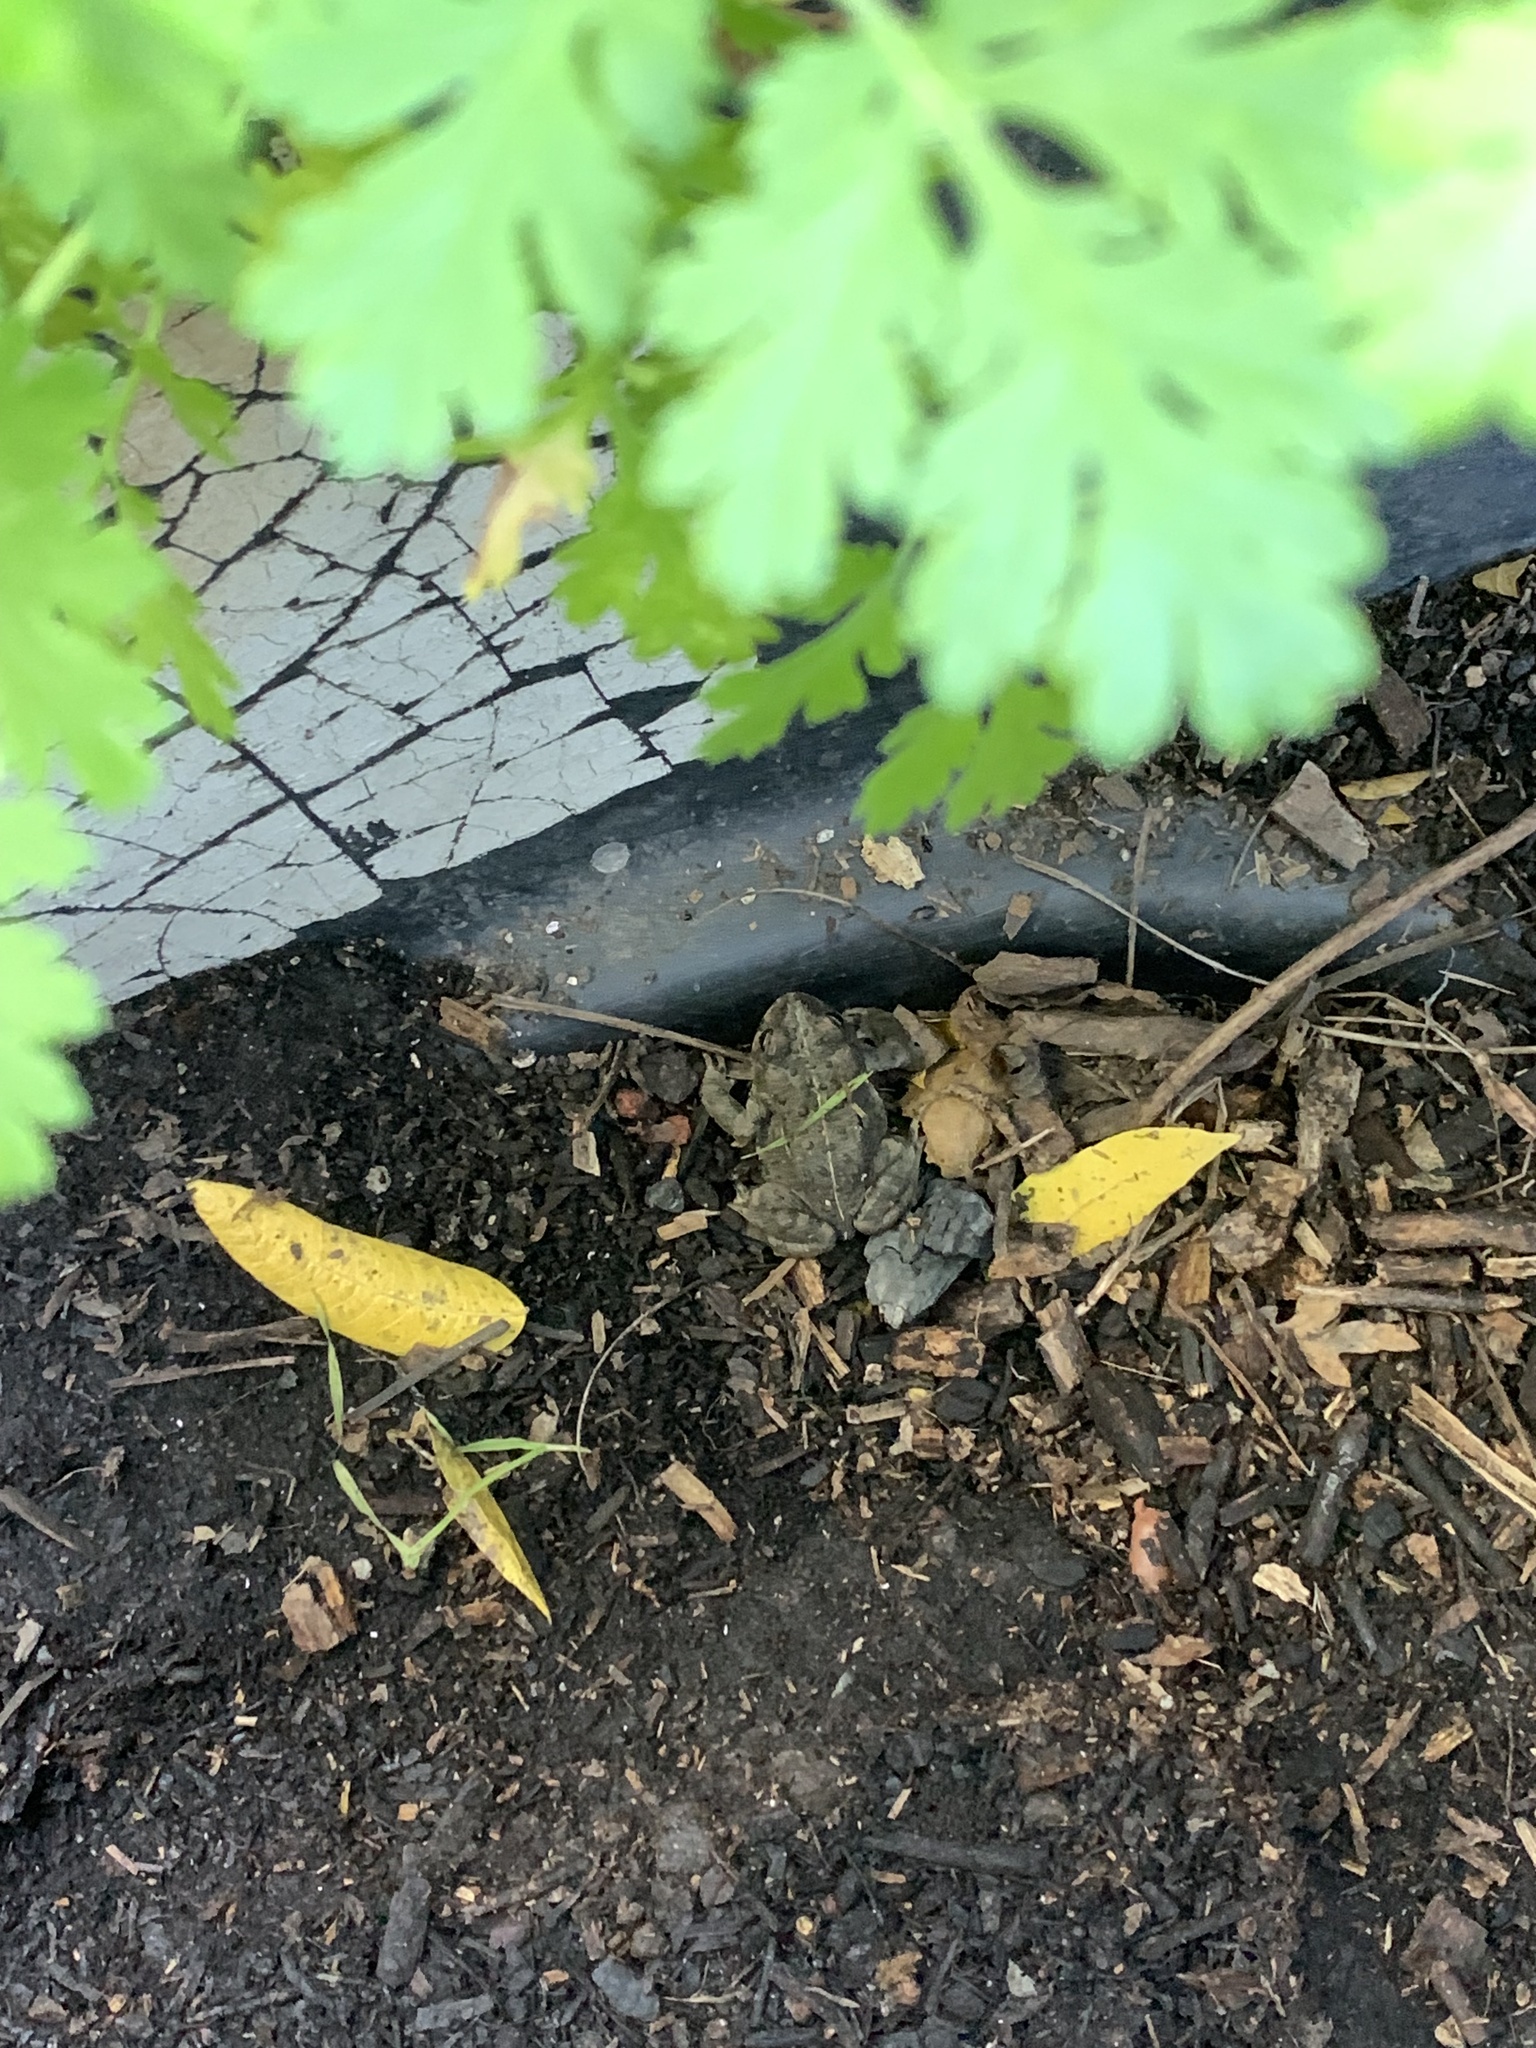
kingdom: Animalia
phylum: Chordata
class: Amphibia
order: Anura
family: Bufonidae
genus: Anaxyrus
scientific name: Anaxyrus boreas
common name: Western toad
